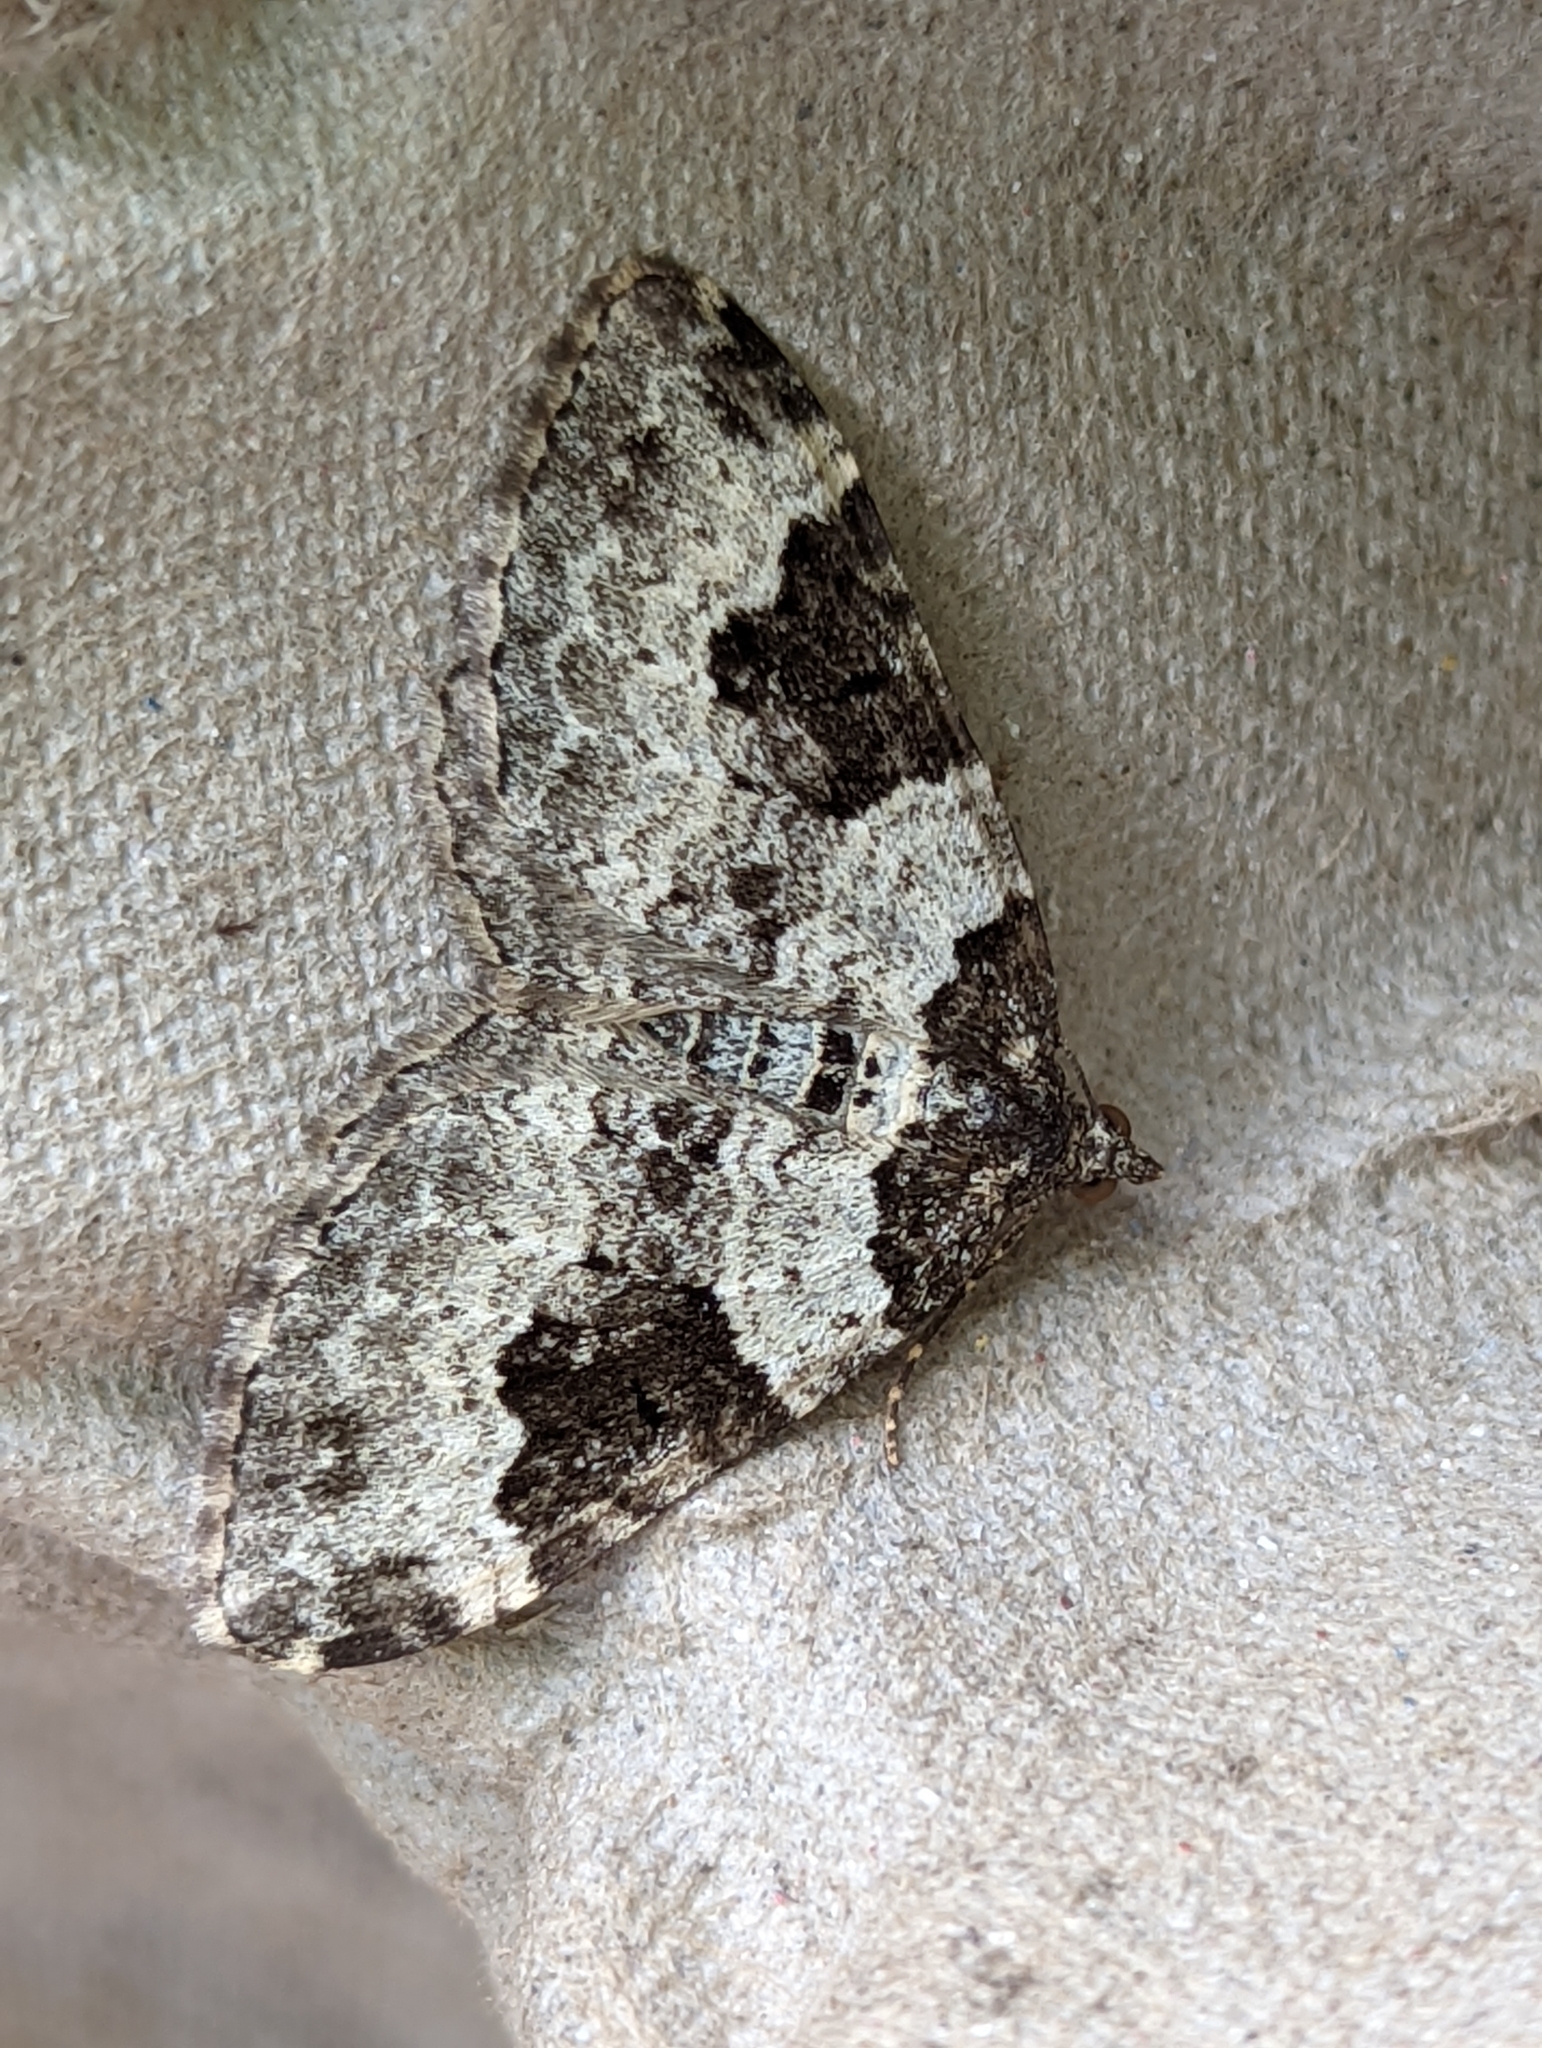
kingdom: Animalia
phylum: Arthropoda
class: Insecta
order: Lepidoptera
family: Geometridae
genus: Xanthorhoe
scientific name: Xanthorhoe fluctuata
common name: Garden carpet
